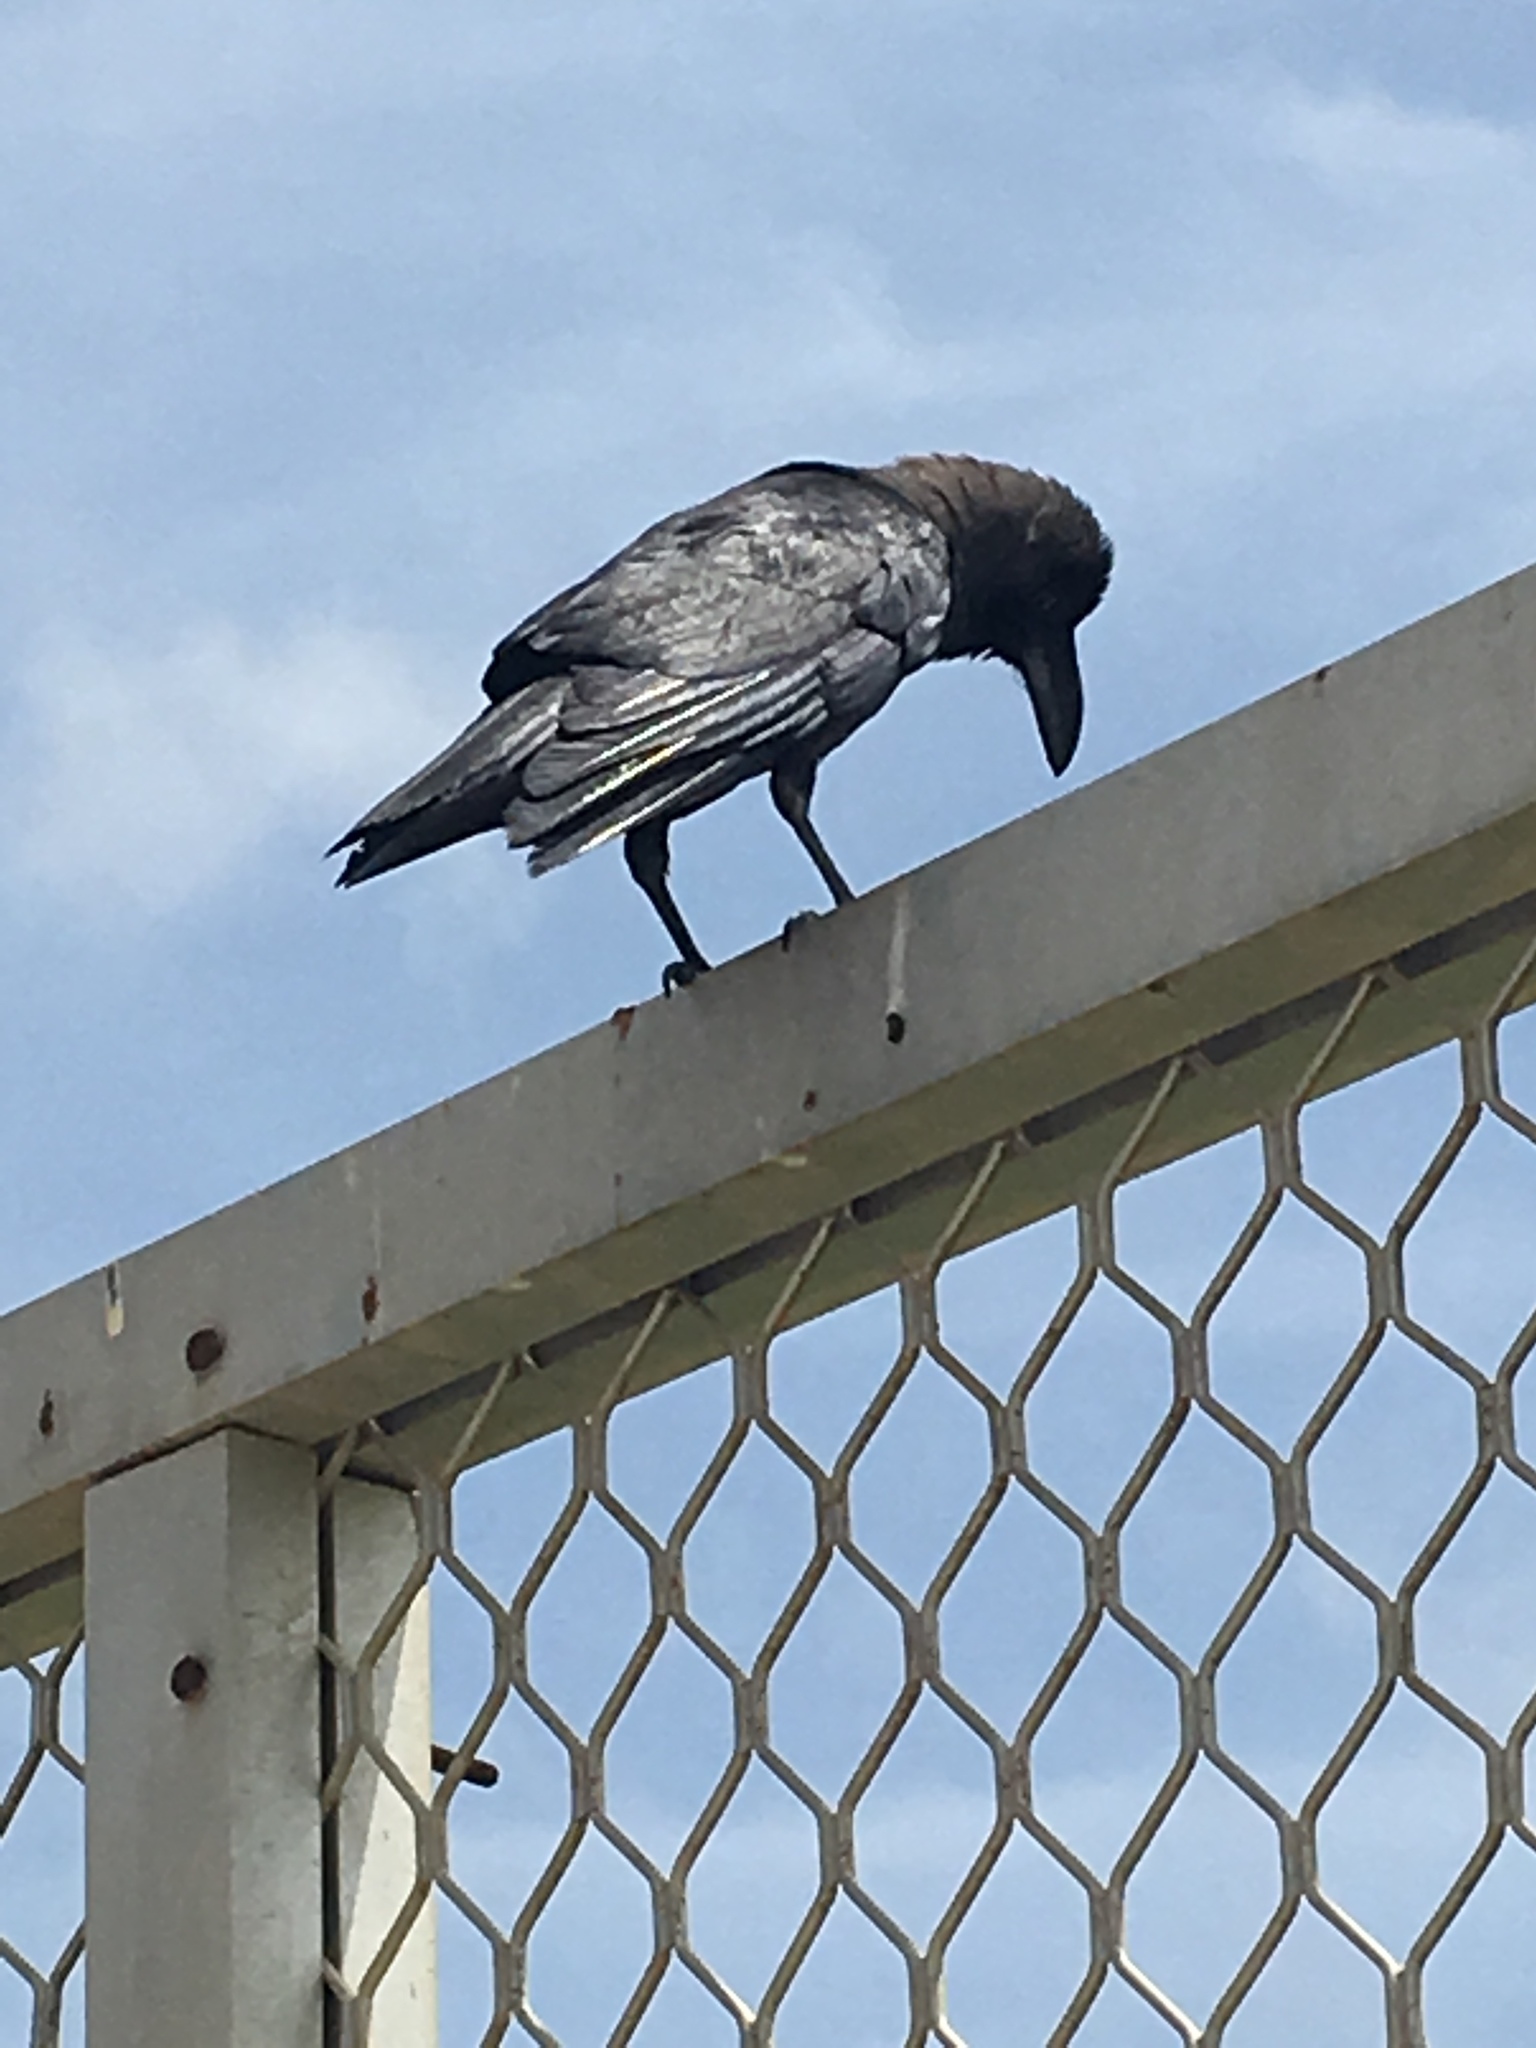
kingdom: Animalia
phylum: Chordata
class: Aves
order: Passeriformes
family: Corvidae
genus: Corvus
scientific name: Corvus splendens
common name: House crow
